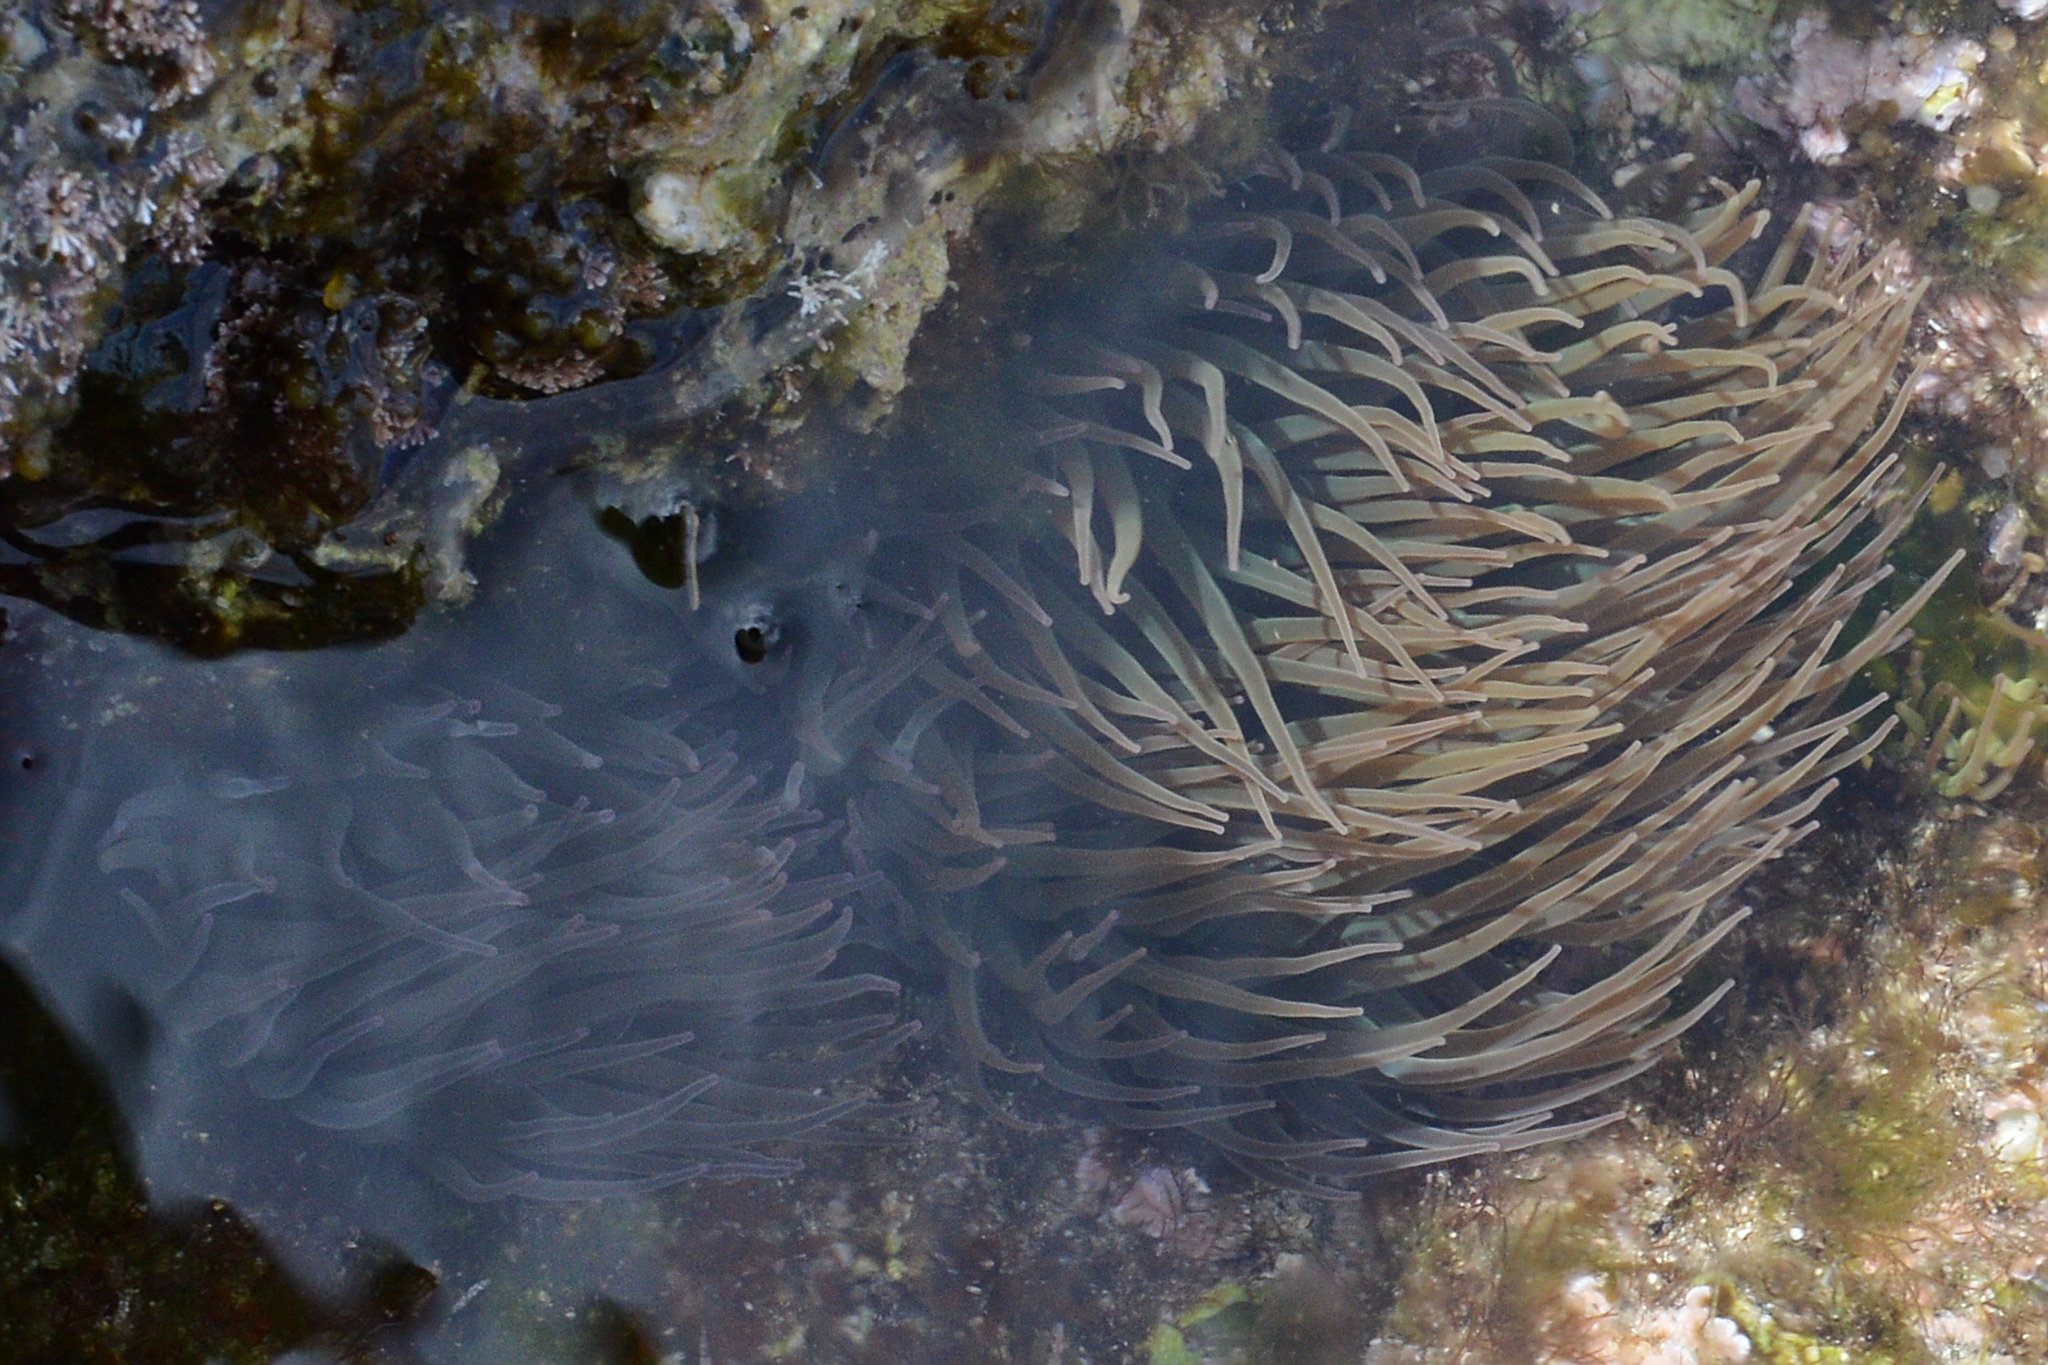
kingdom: Animalia
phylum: Cnidaria
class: Anthozoa
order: Actiniaria
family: Actiniidae
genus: Anemonia
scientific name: Anemonia viridis
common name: Snakelocks anemone
